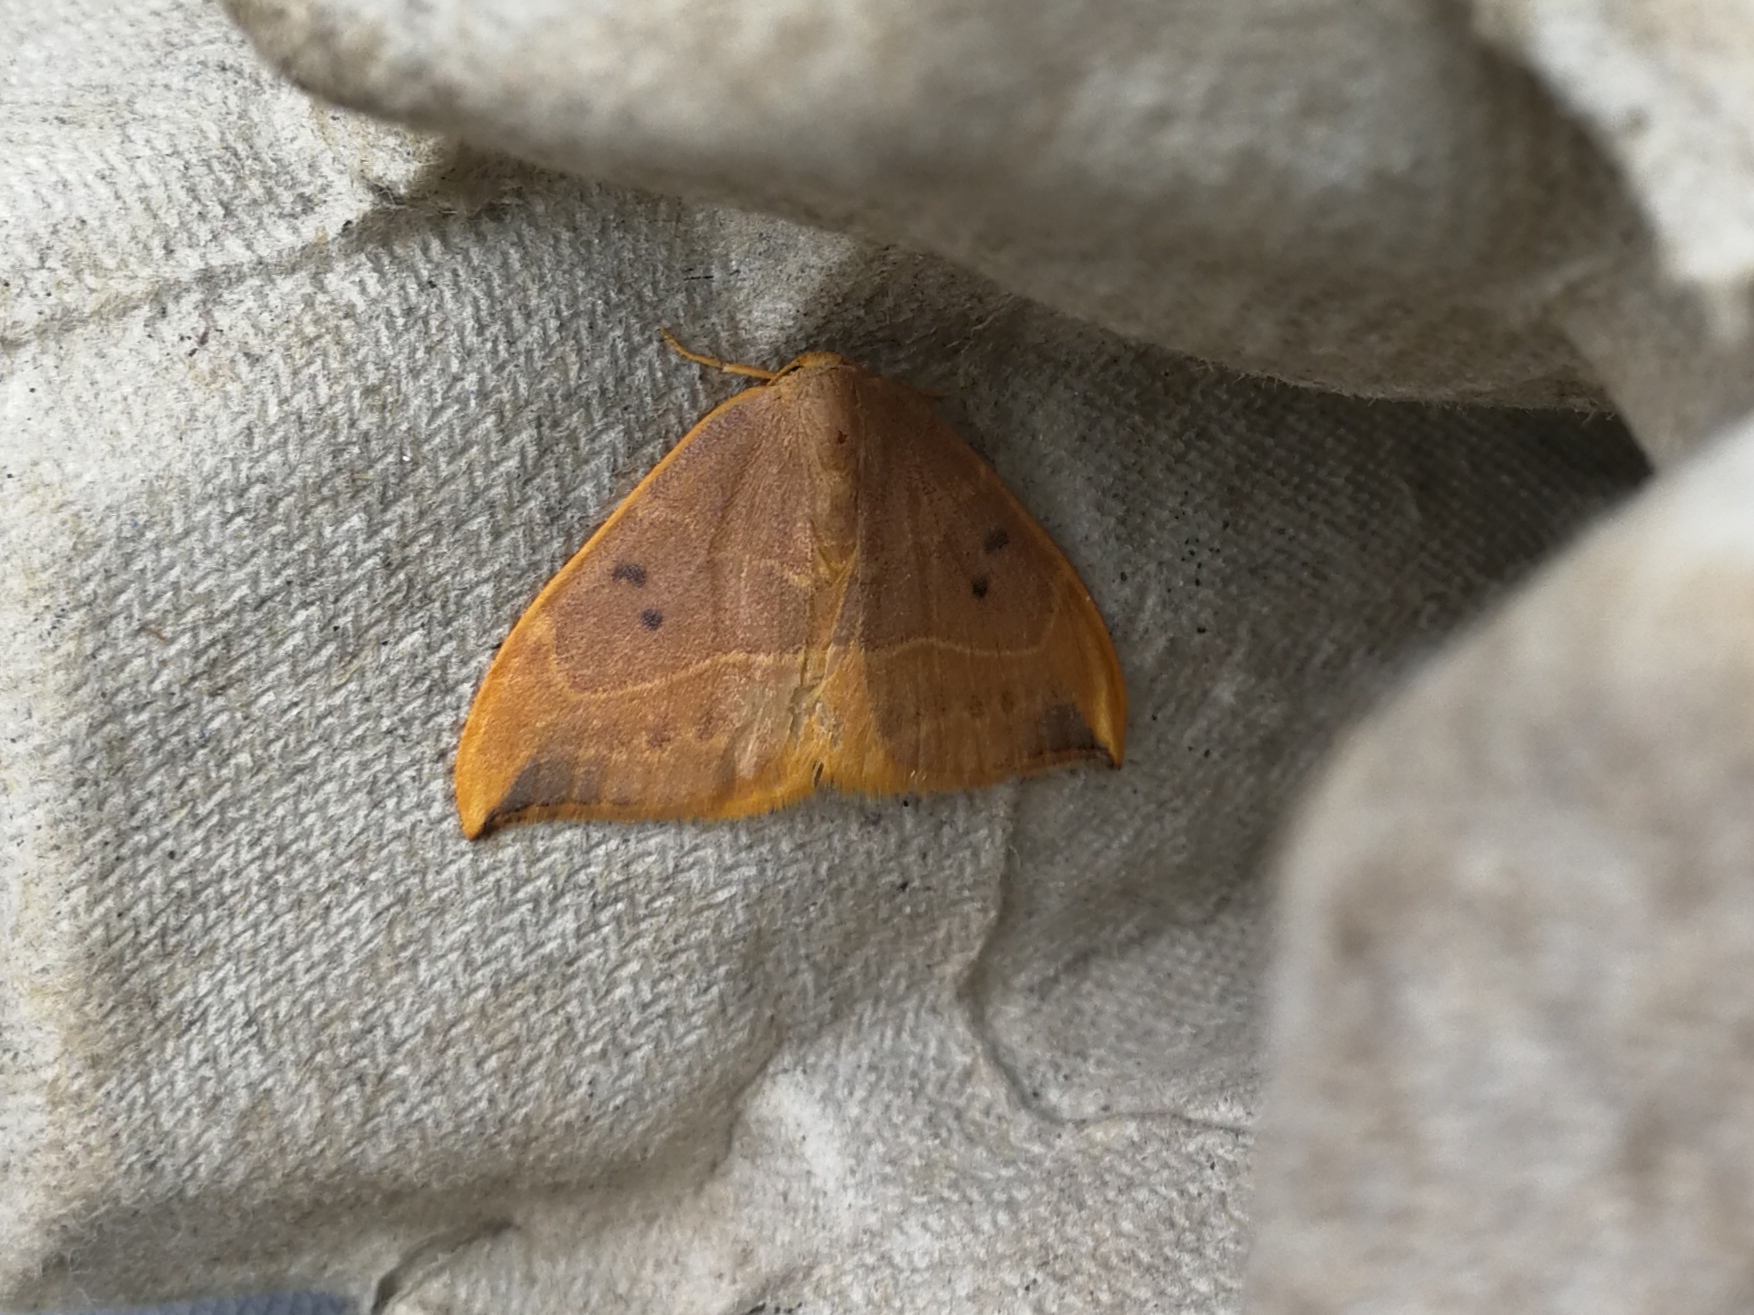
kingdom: Animalia
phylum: Arthropoda
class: Insecta
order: Lepidoptera
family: Drepanidae
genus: Watsonalla
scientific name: Watsonalla binaria
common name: Oak hook-tip
